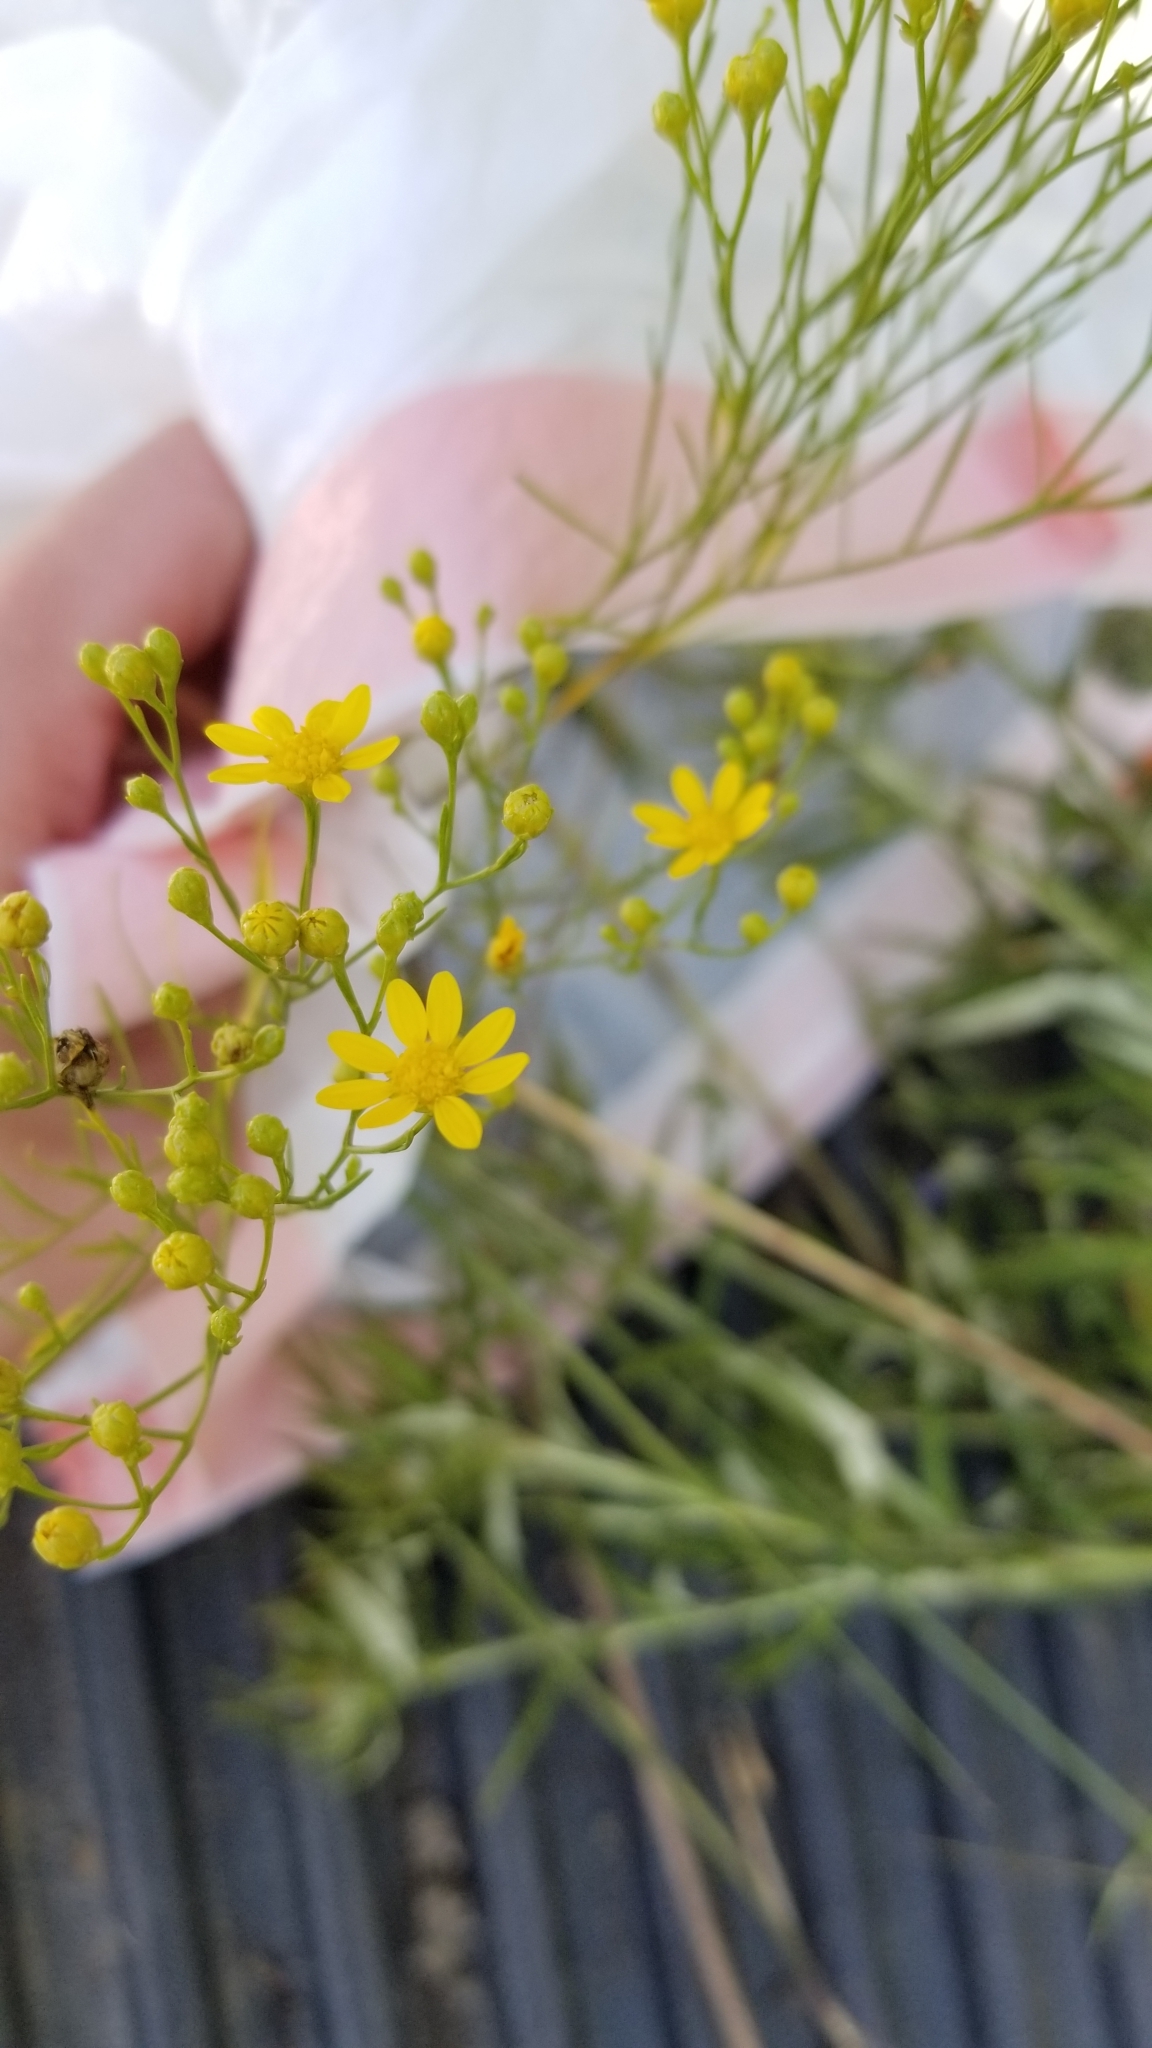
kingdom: Plantae
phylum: Tracheophyta
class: Magnoliopsida
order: Asterales
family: Asteraceae
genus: Amphiachyris
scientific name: Amphiachyris dracunculoides
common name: Broomweed
